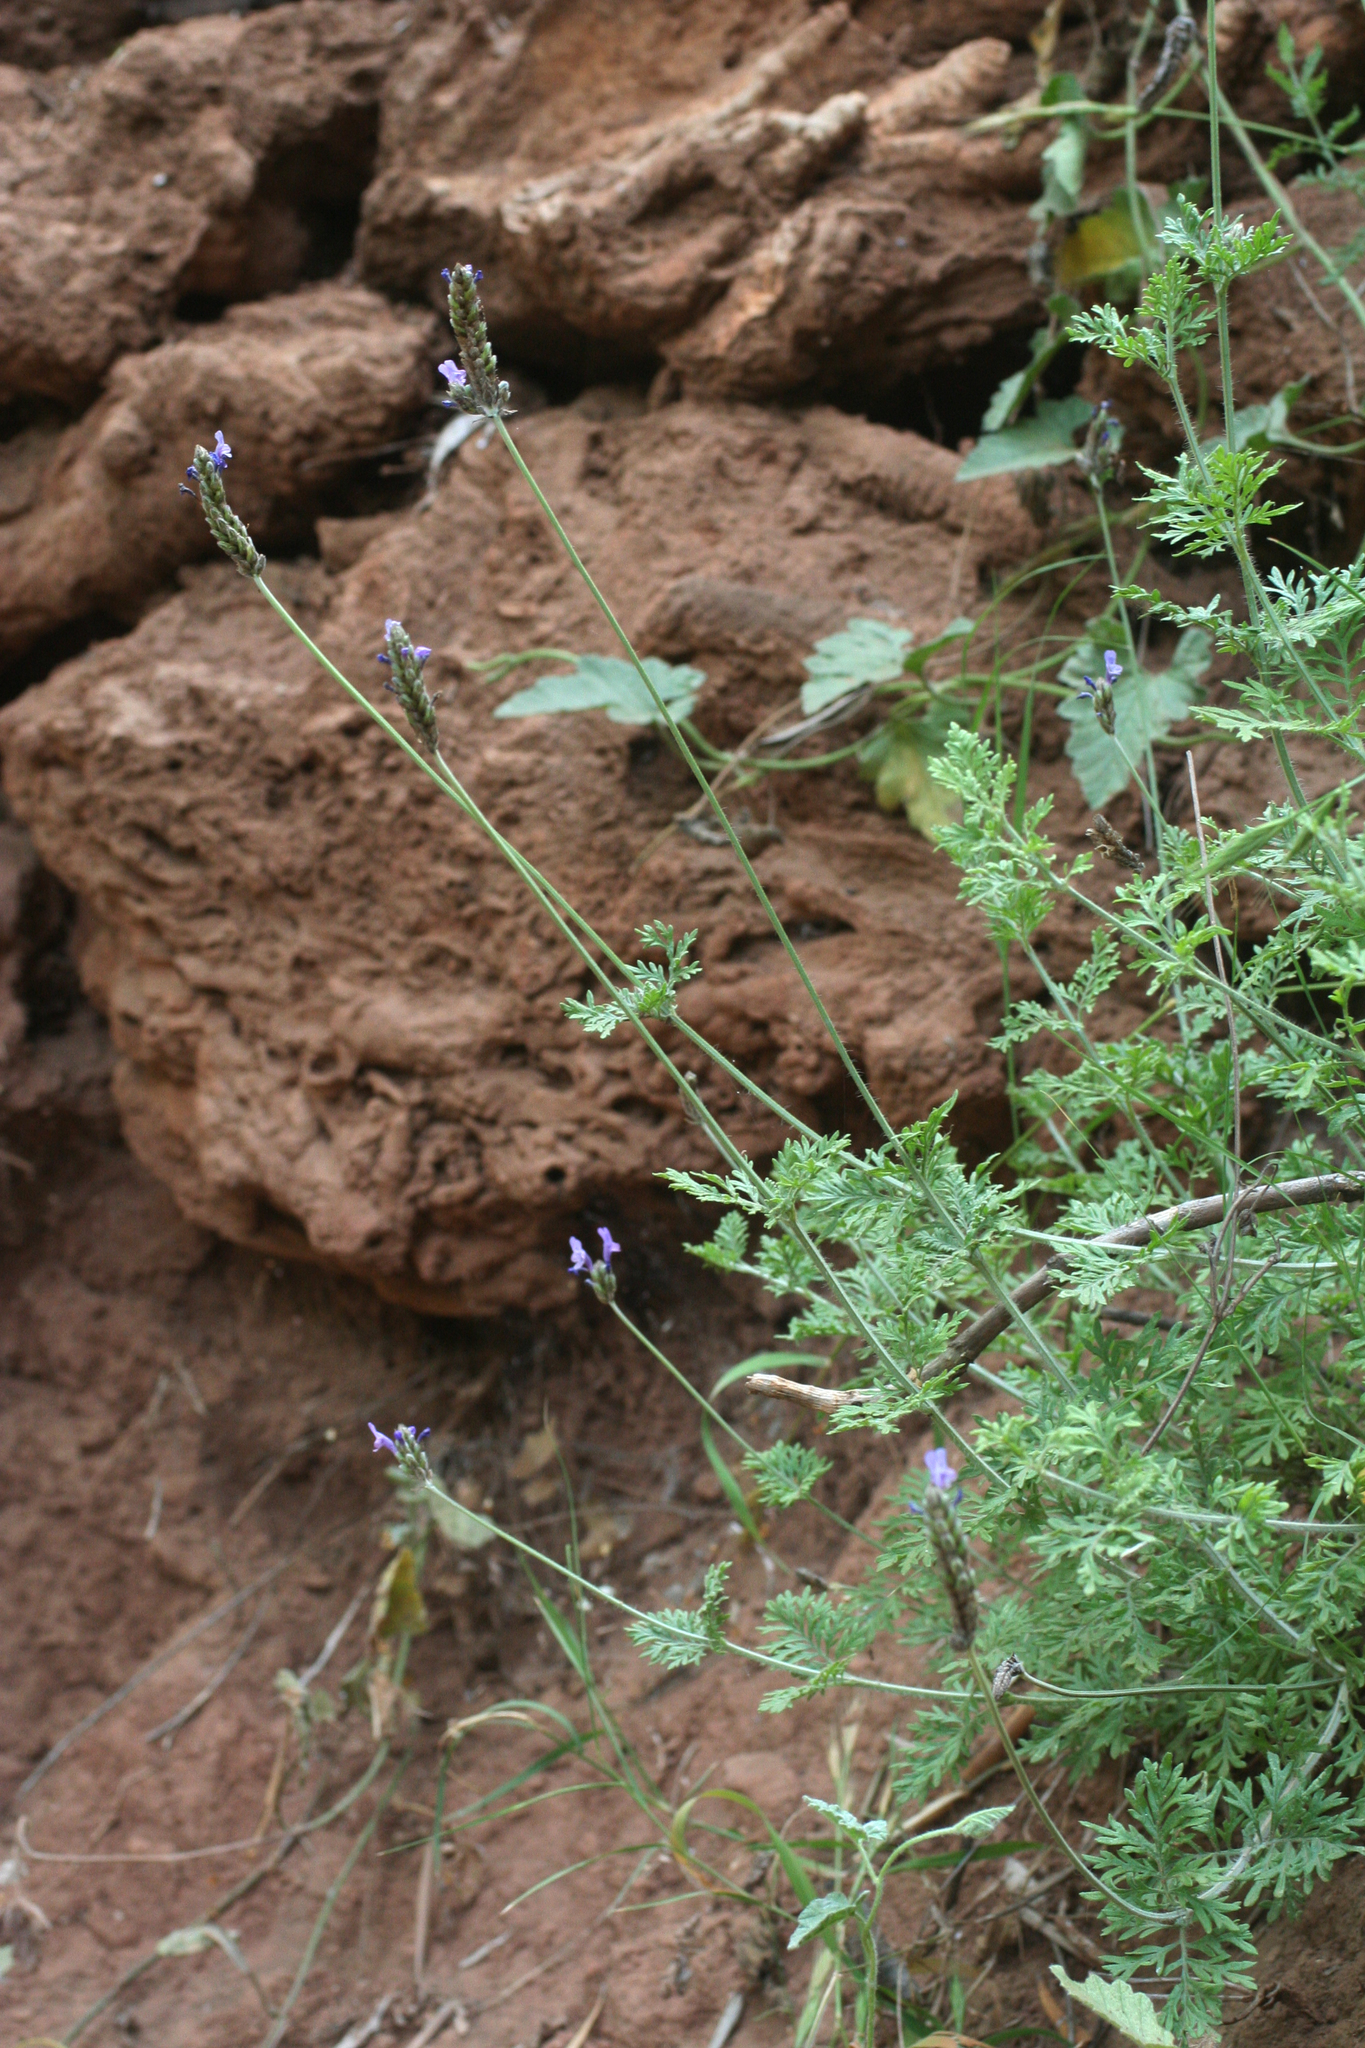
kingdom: Plantae
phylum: Tracheophyta
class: Magnoliopsida
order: Lamiales
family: Lamiaceae
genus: Lavandula
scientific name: Lavandula multifida
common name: Fern-leaf lavender
